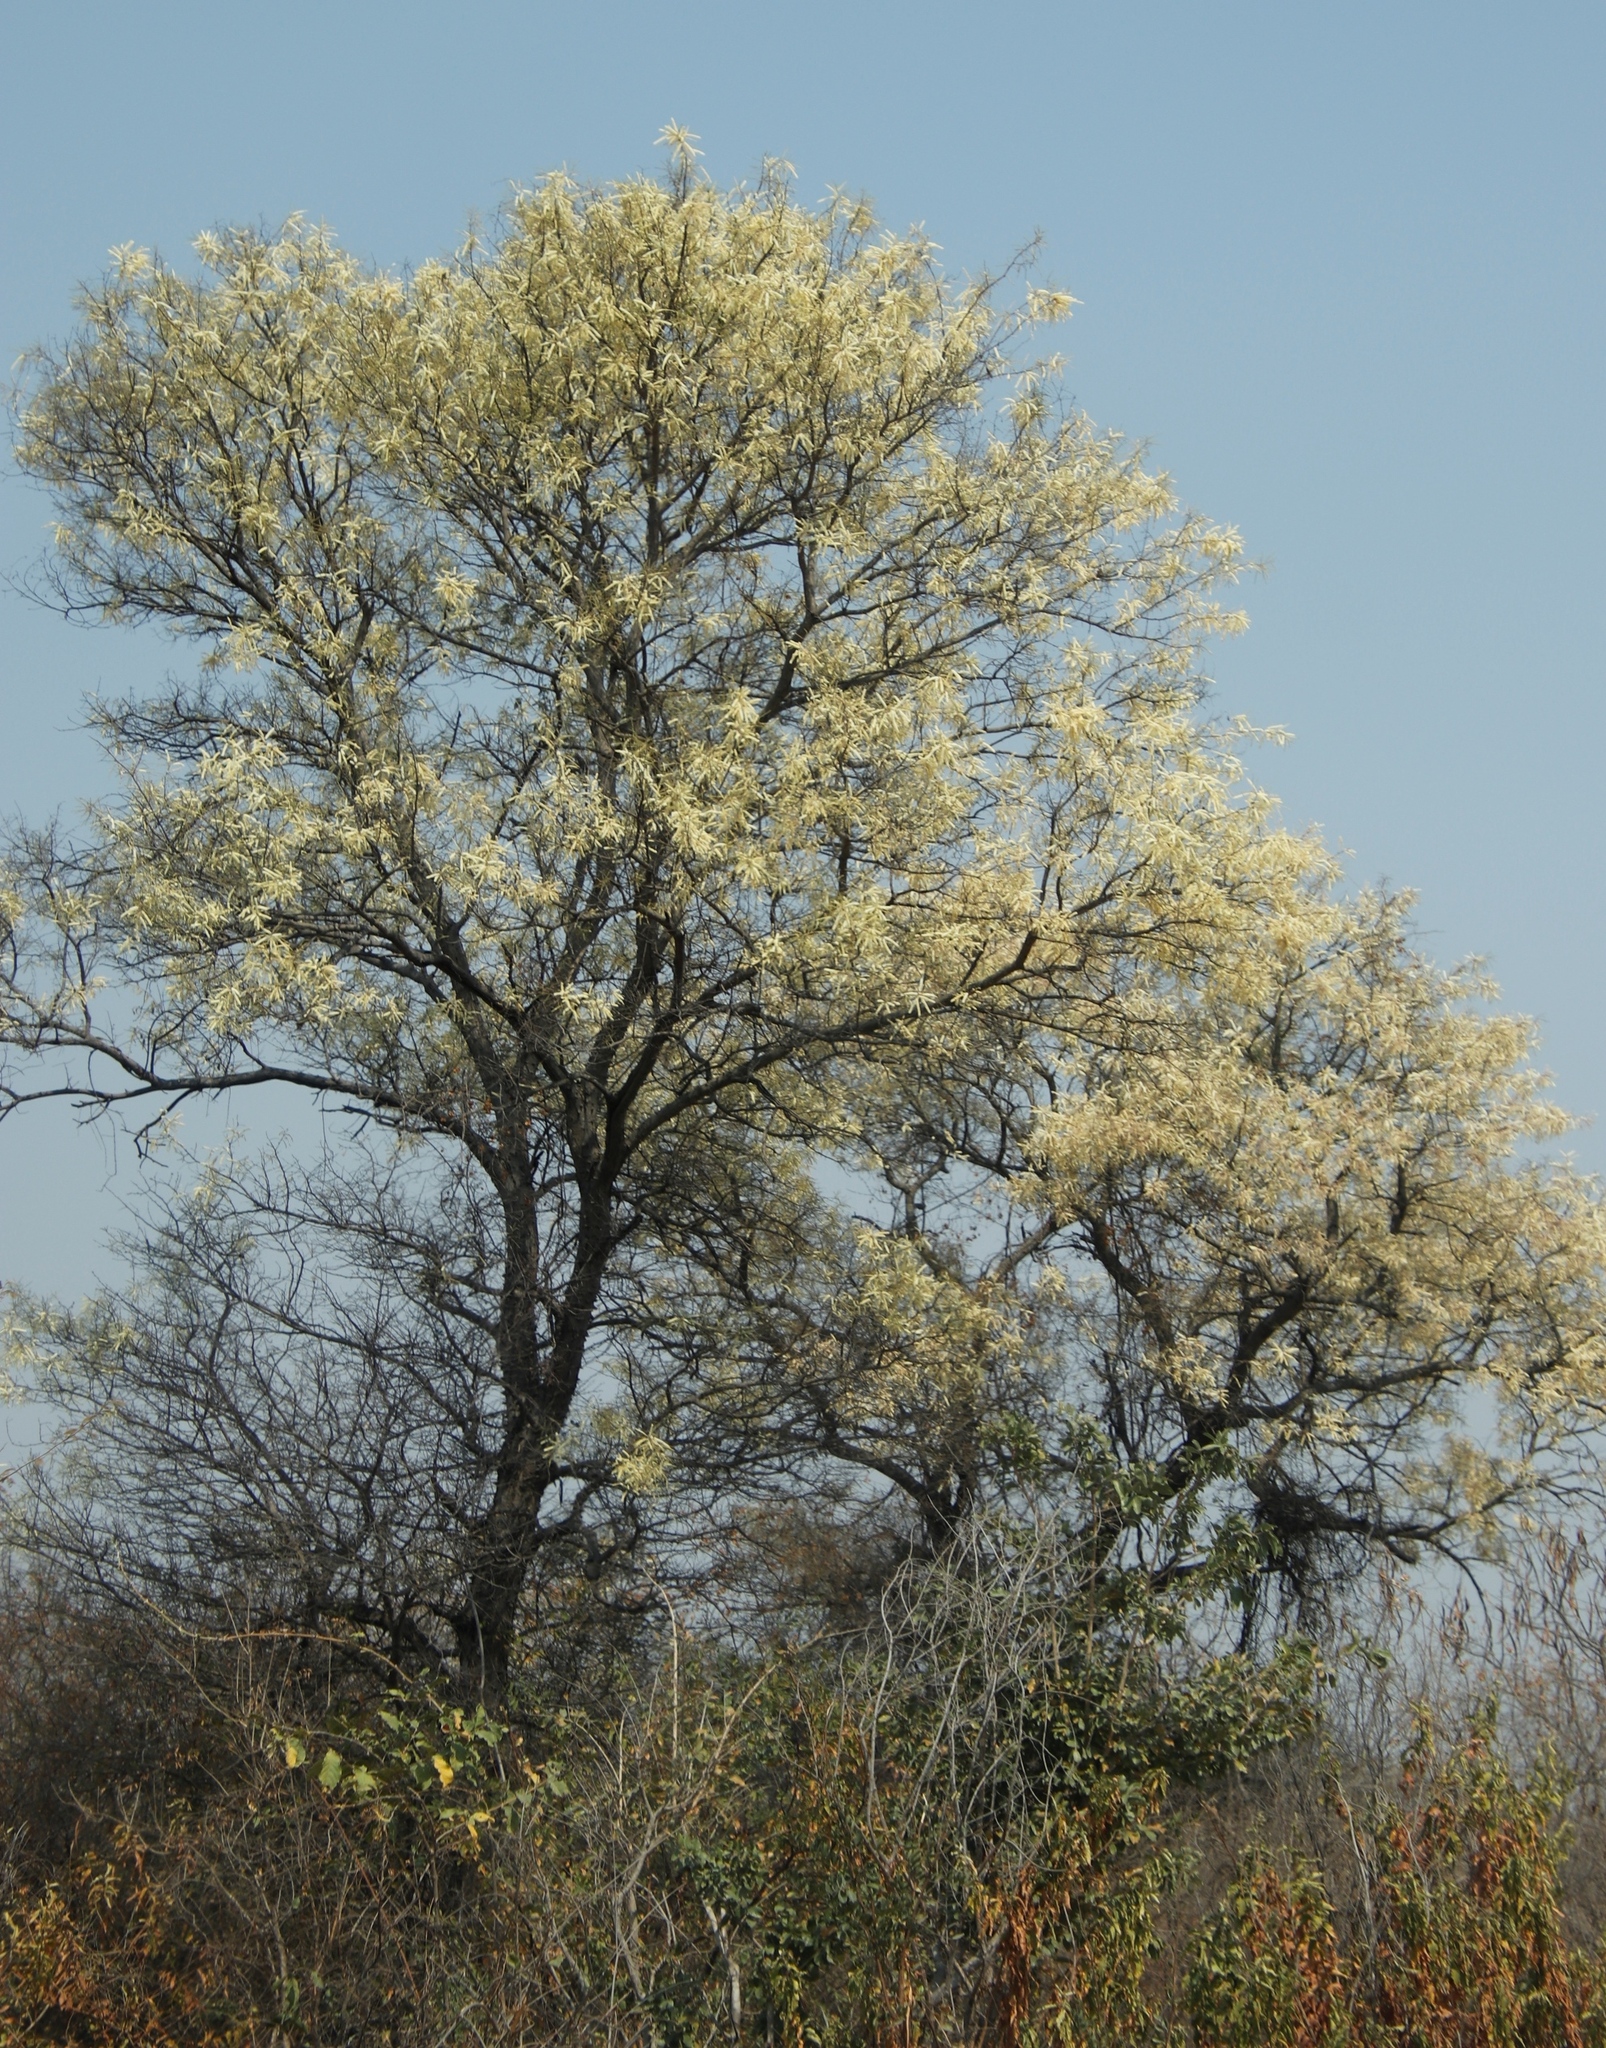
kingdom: Plantae
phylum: Tracheophyta
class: Magnoliopsida
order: Fabales
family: Fabaceae
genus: Senegalia
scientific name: Senegalia nigrescens
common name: Knobthorn
